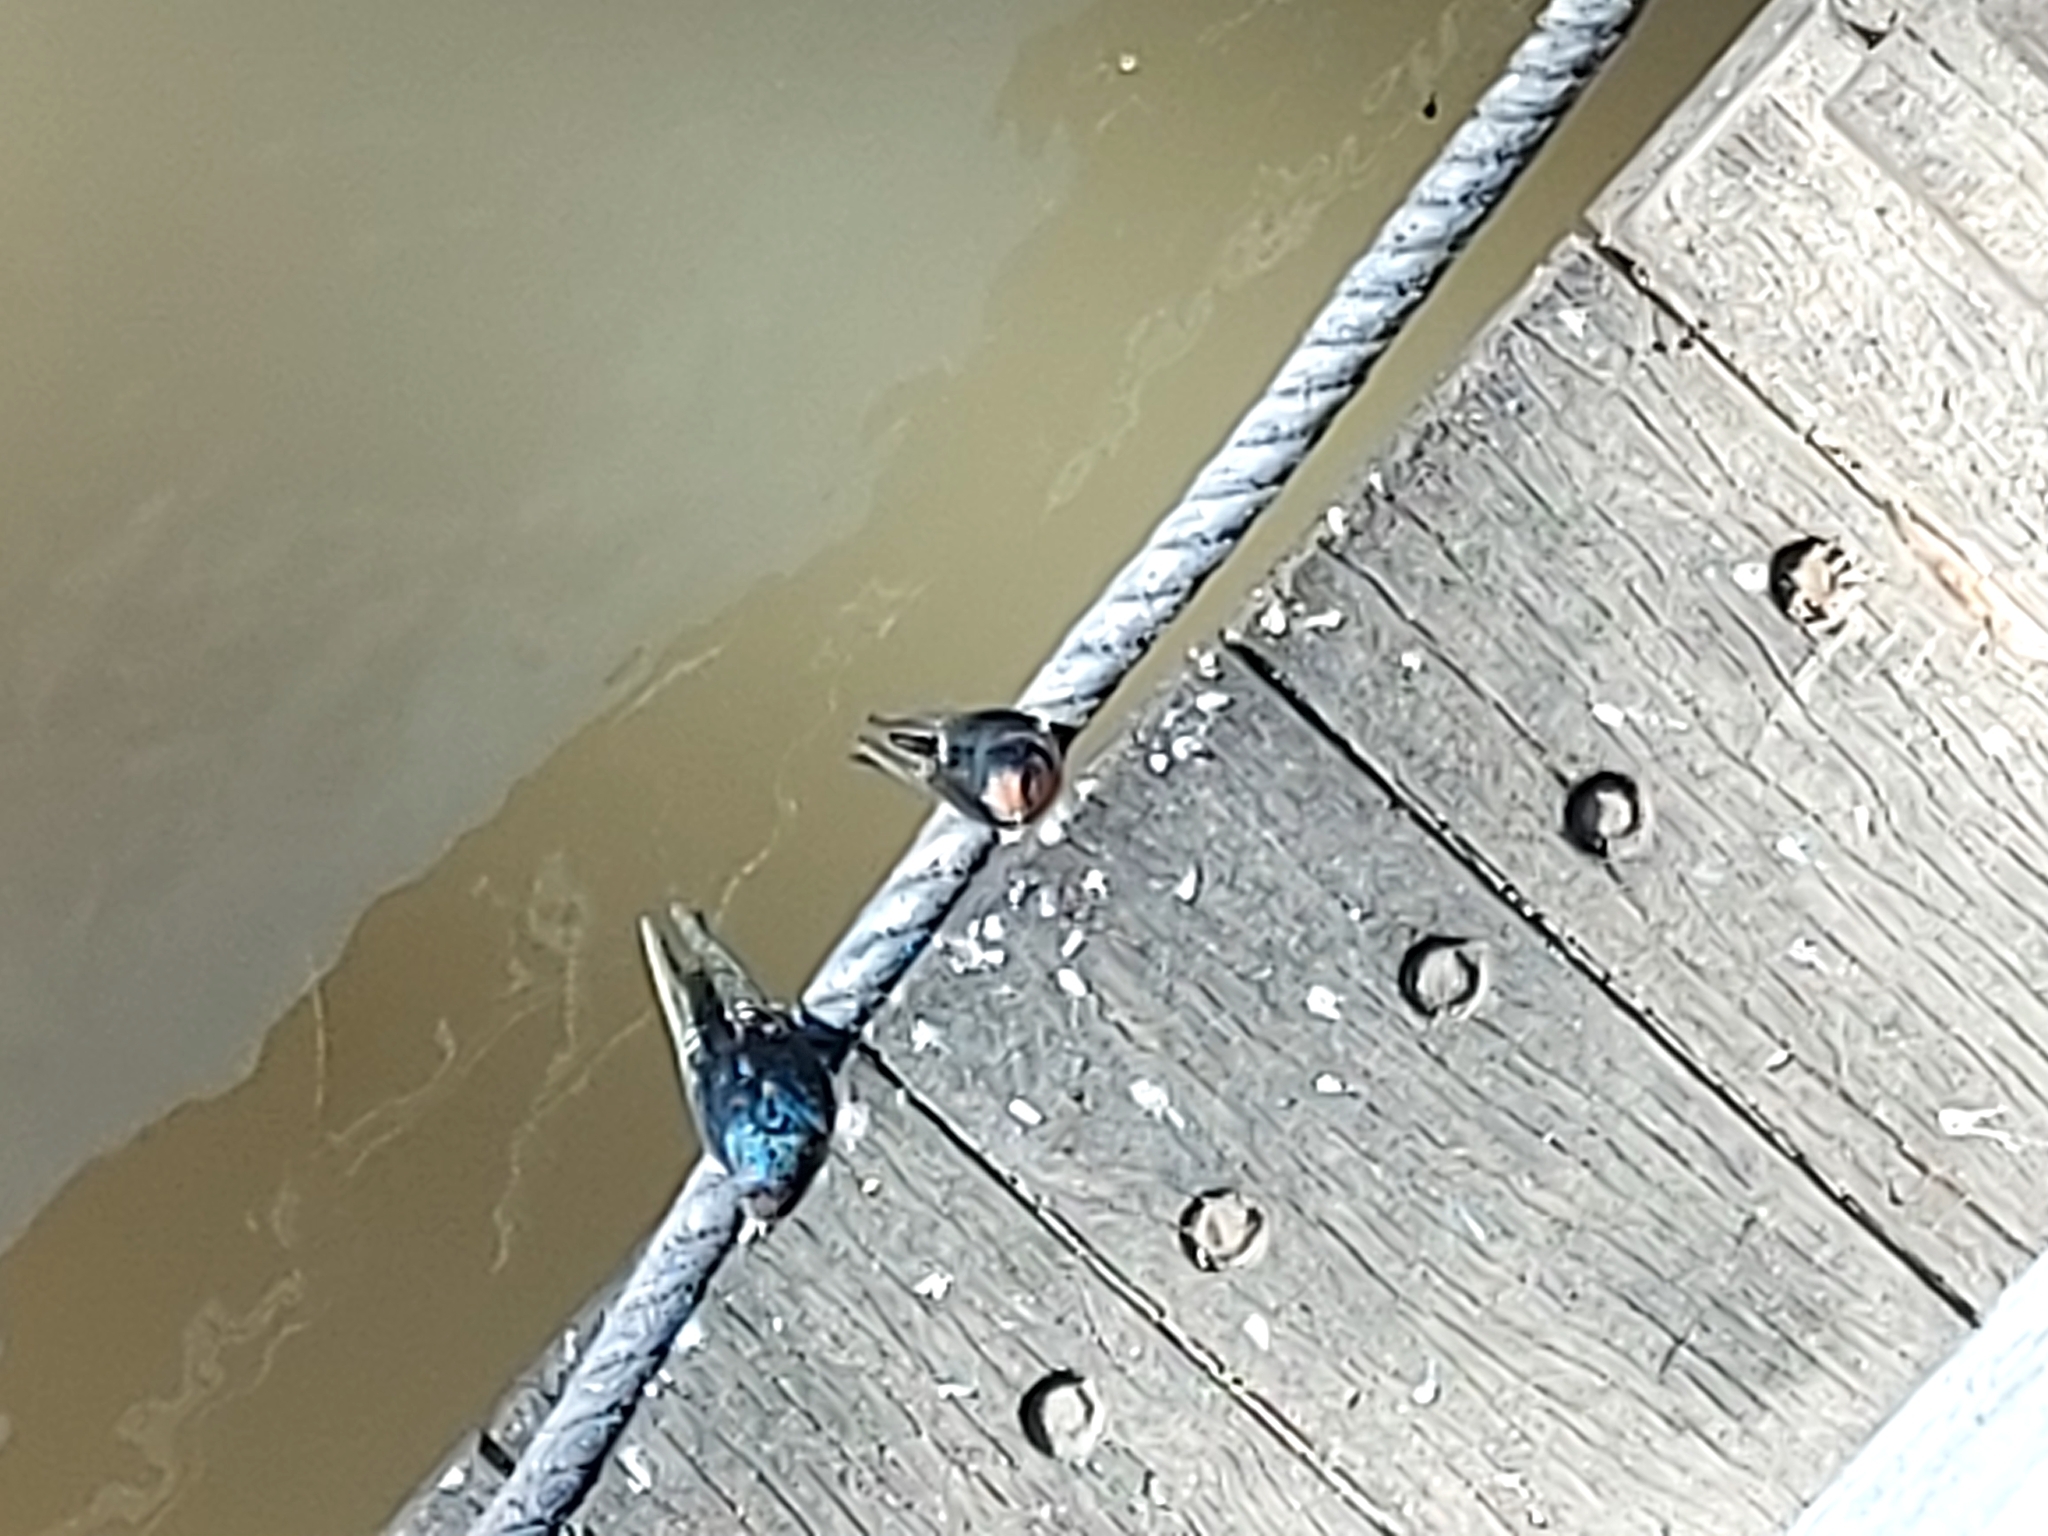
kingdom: Animalia
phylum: Chordata
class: Aves
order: Passeriformes
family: Hirundinidae
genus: Hirundo
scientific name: Hirundo neoxena
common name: Welcome swallow
